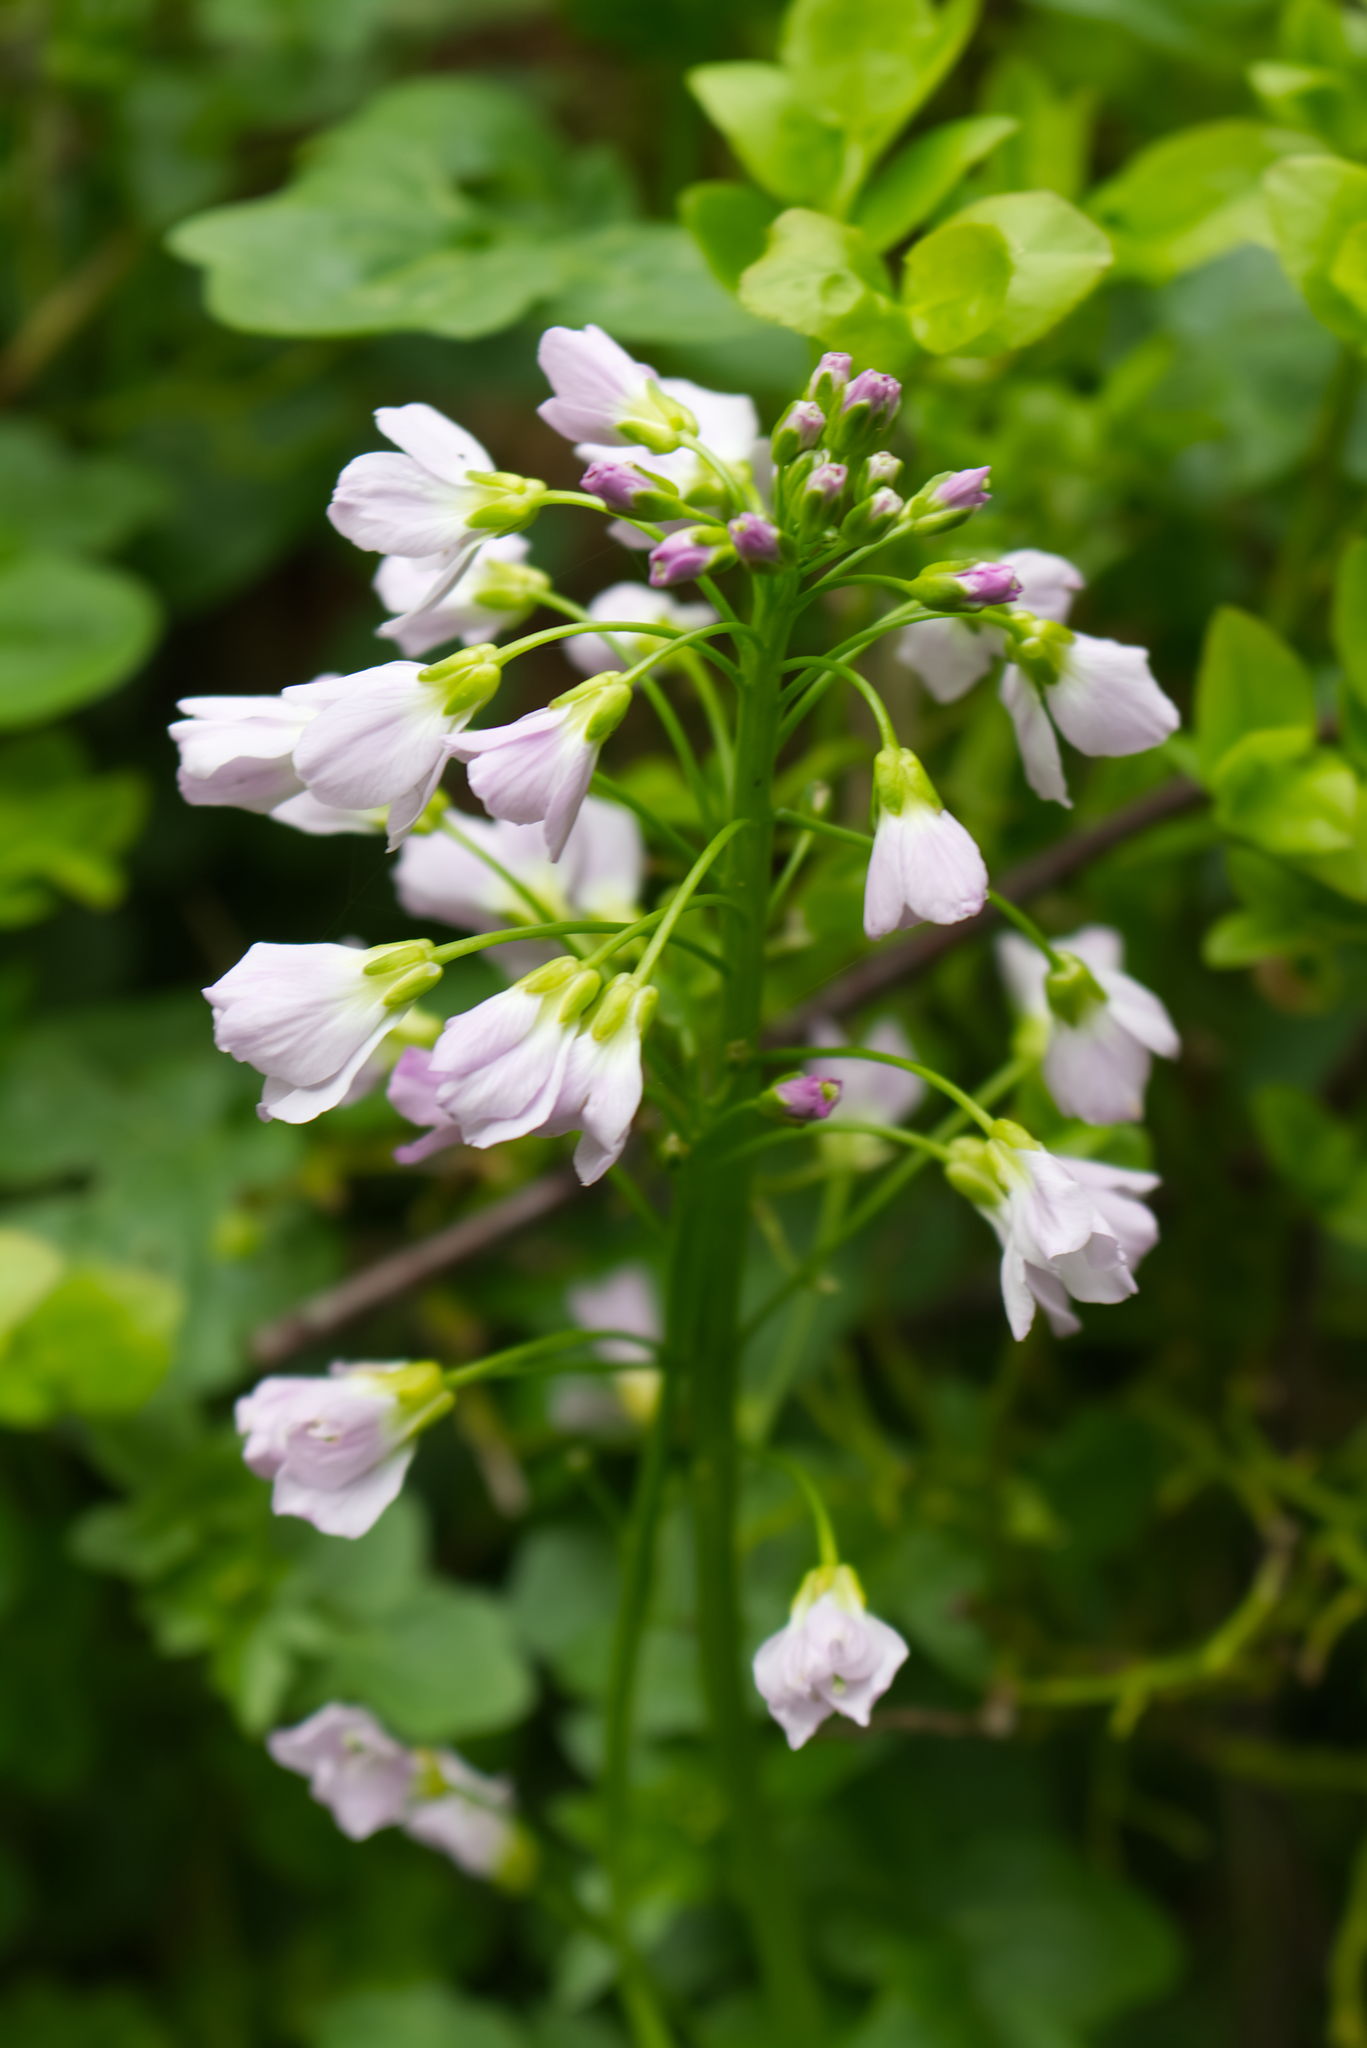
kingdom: Plantae
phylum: Tracheophyta
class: Magnoliopsida
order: Brassicales
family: Brassicaceae
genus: Cardamine
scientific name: Cardamine pratensis
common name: Cuckoo flower
